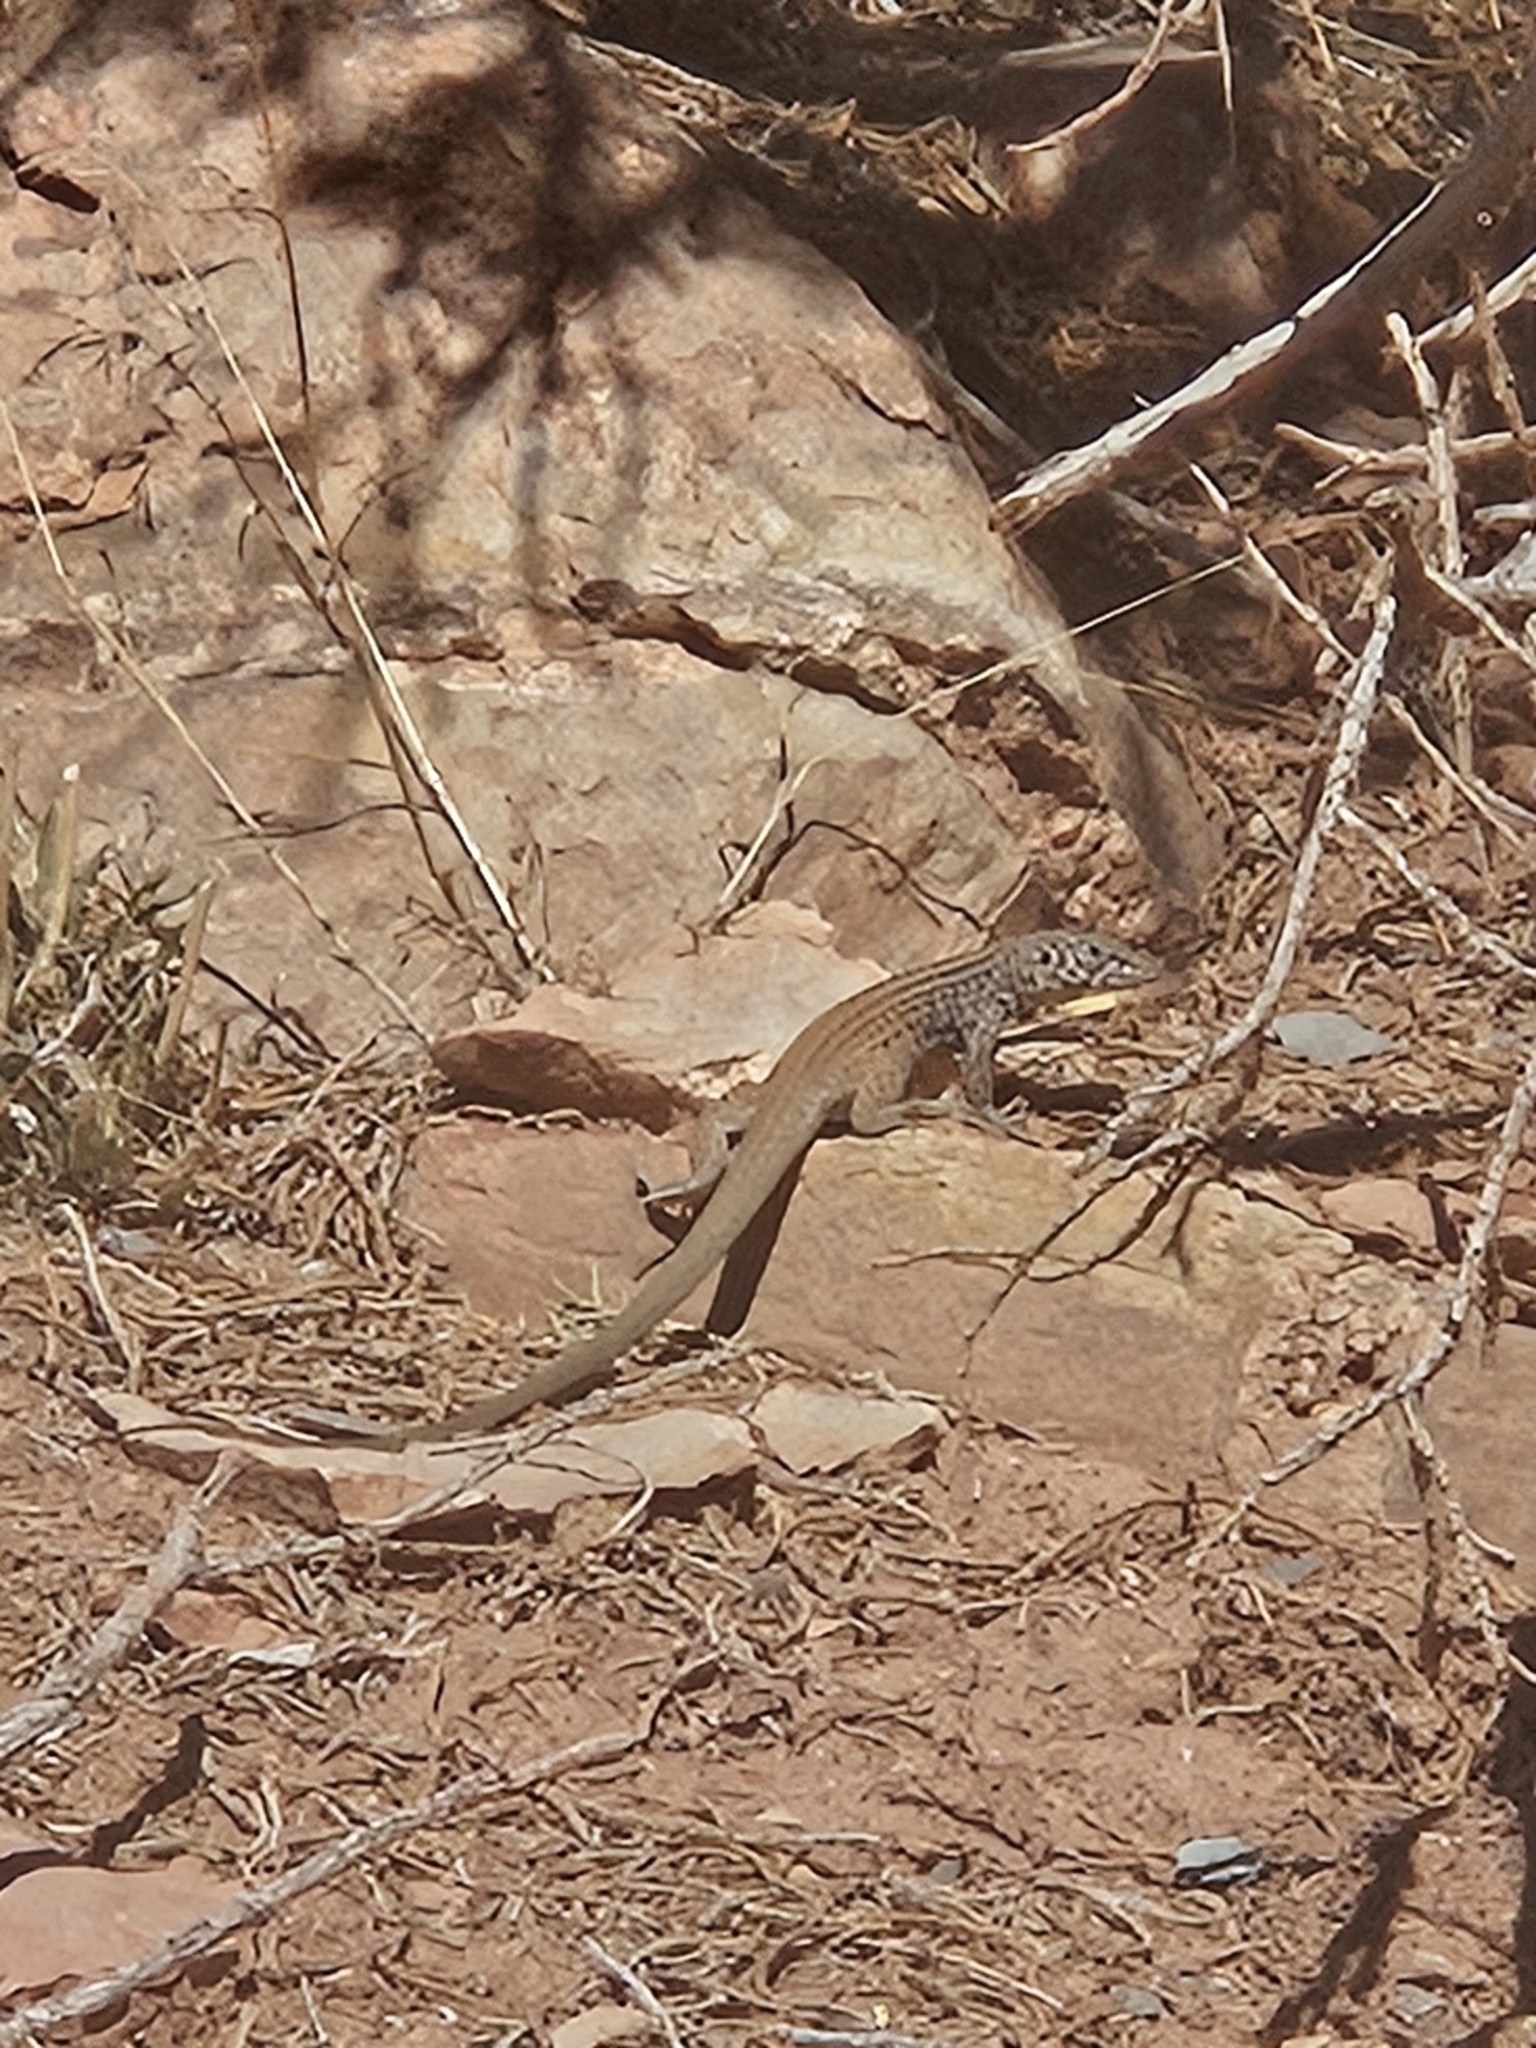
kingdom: Animalia
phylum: Chordata
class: Squamata
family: Teiidae
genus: Aspidoscelis
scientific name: Aspidoscelis tigris
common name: Tiger whiptail
